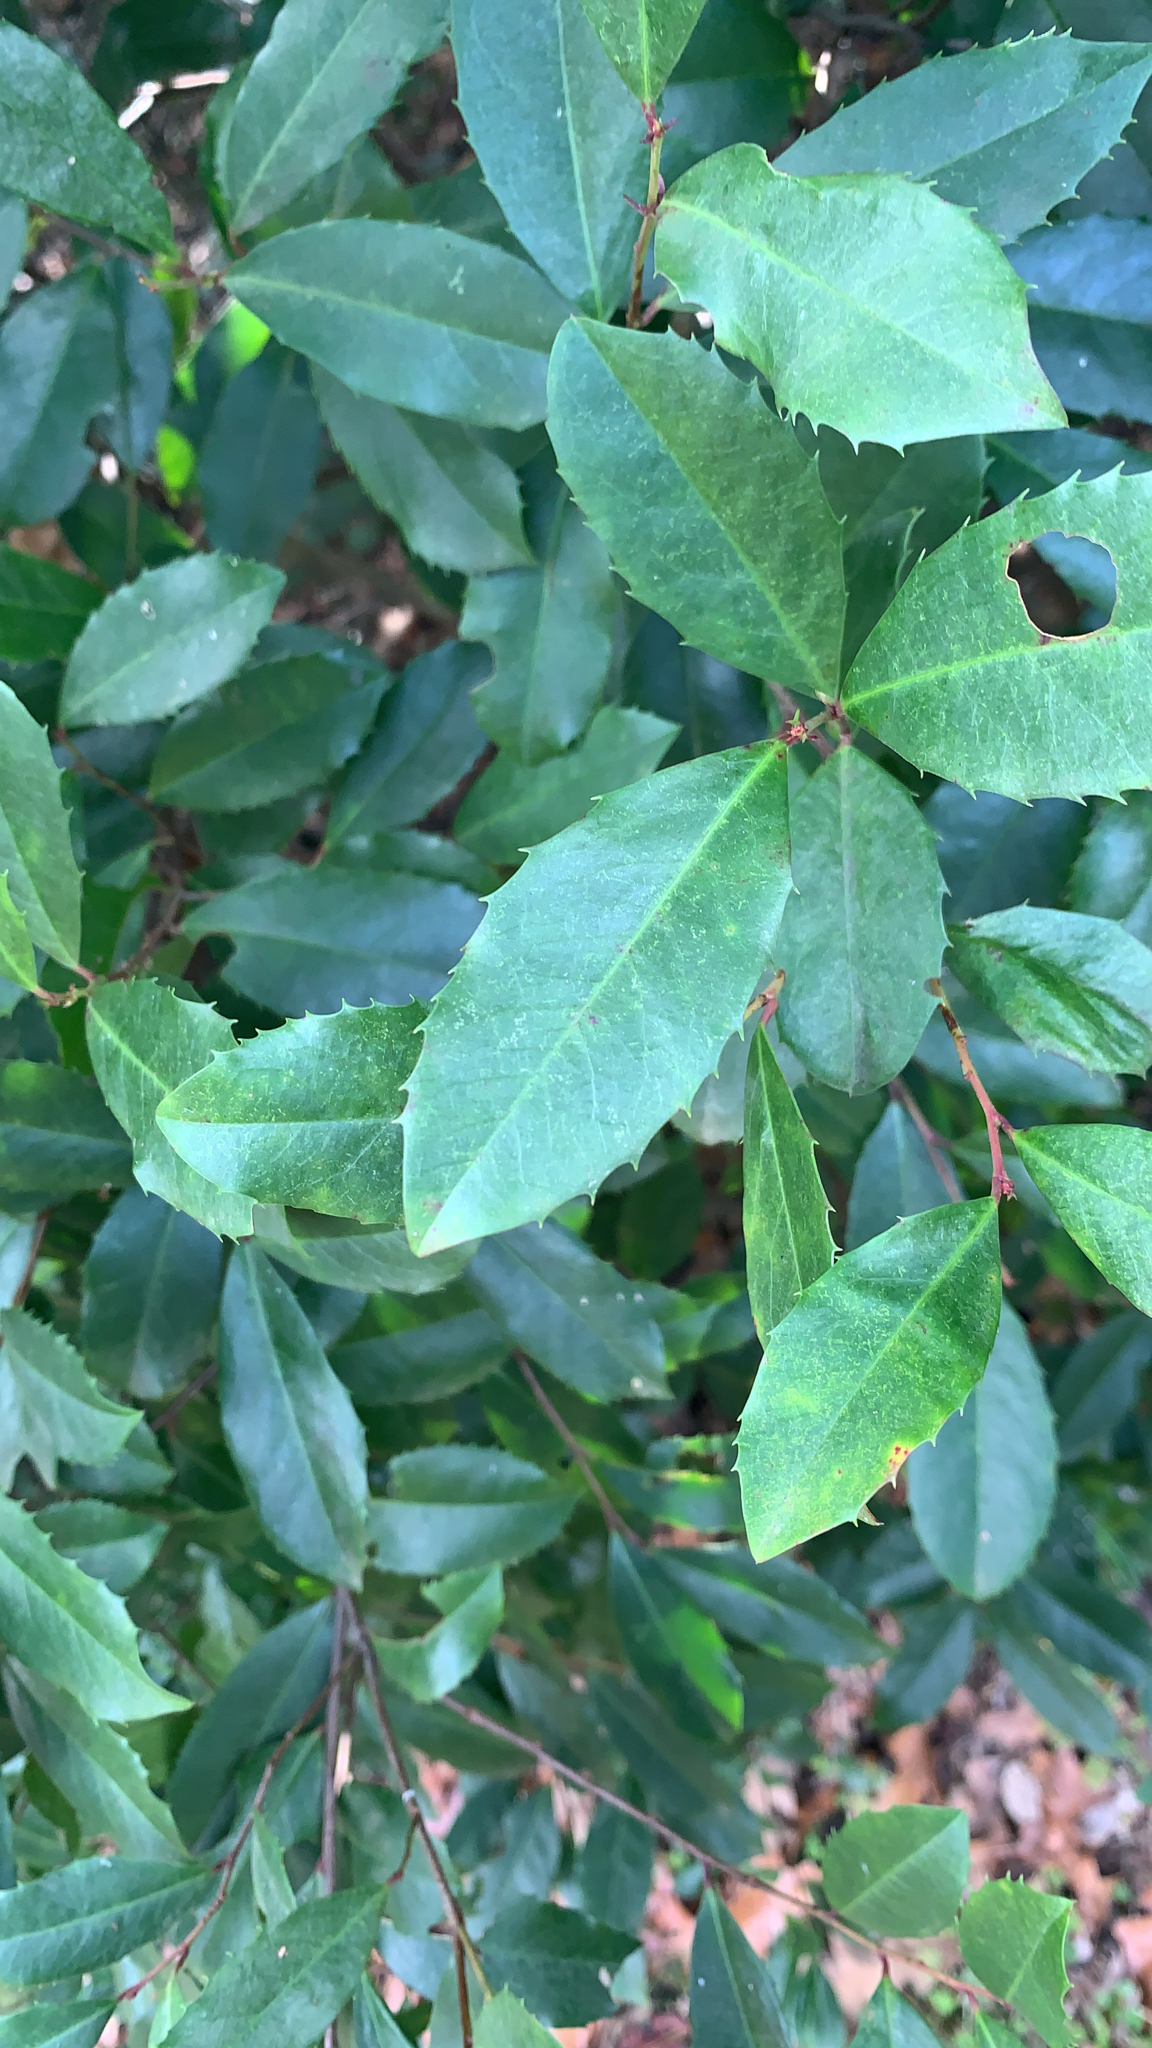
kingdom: Plantae
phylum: Tracheophyta
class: Magnoliopsida
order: Rosales
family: Rosaceae
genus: Prunus
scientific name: Prunus caroliniana
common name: Carolina laurel cherry
